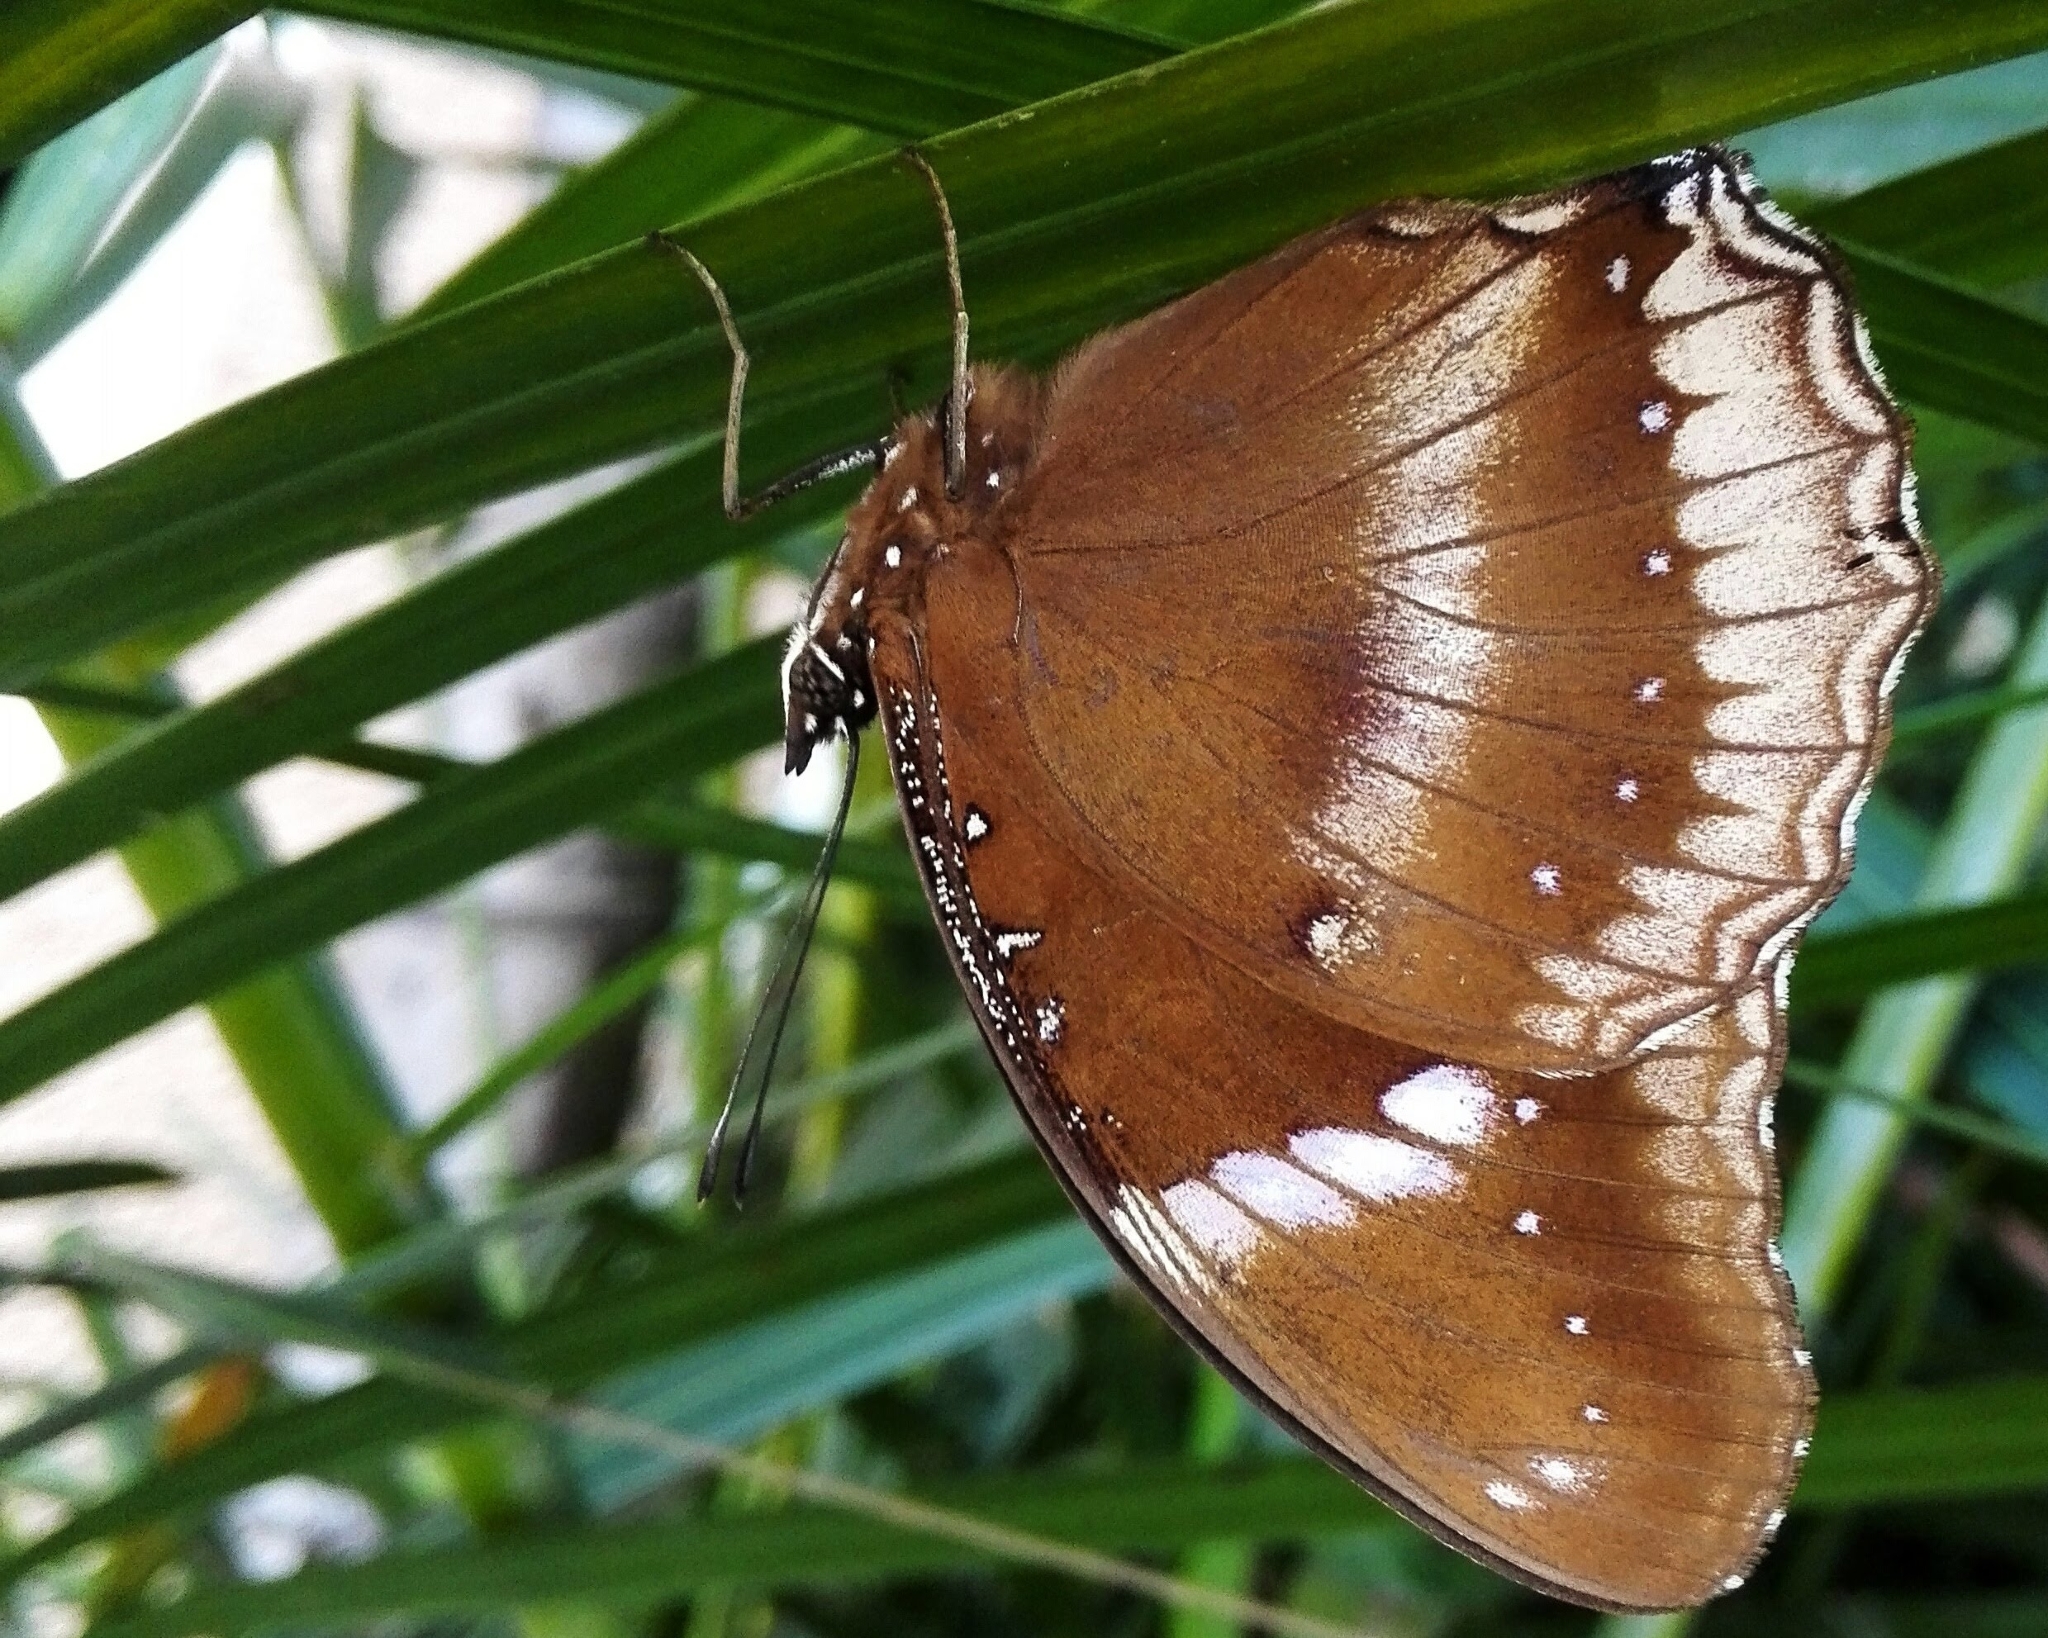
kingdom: Animalia
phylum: Arthropoda
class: Insecta
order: Lepidoptera
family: Nymphalidae
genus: Hypolimnas
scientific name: Hypolimnas bolina
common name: Great eggfly
